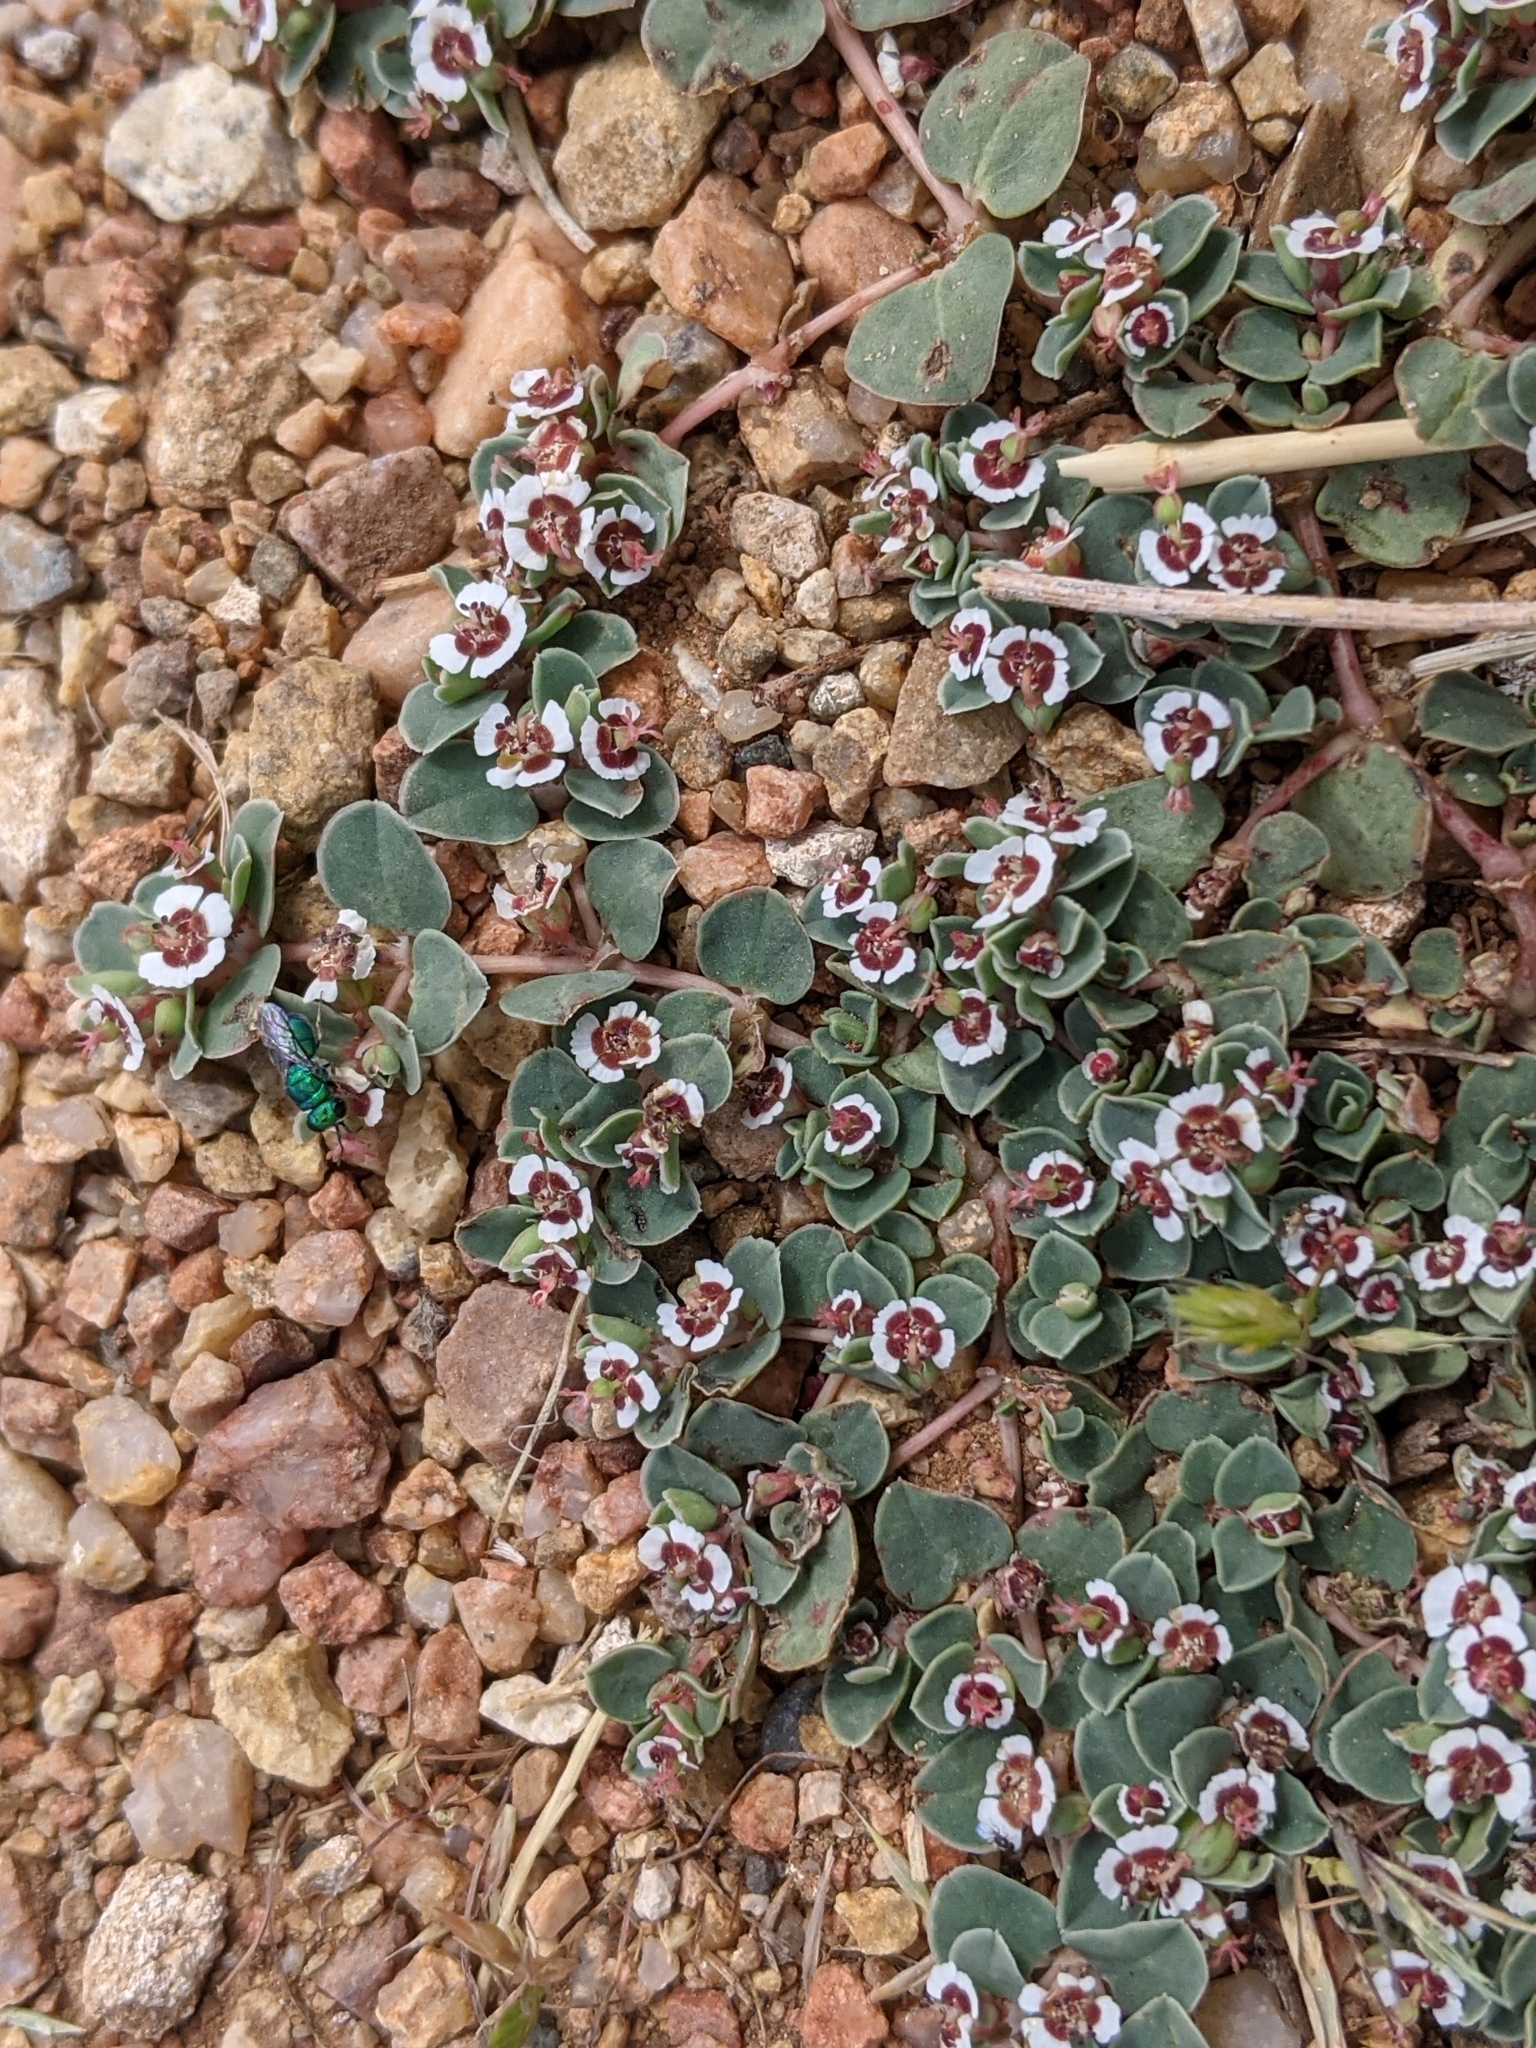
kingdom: Plantae
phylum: Tracheophyta
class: Magnoliopsida
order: Malpighiales
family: Euphorbiaceae
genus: Euphorbia
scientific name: Euphorbia albomarginata
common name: Whitemargin sandmat
